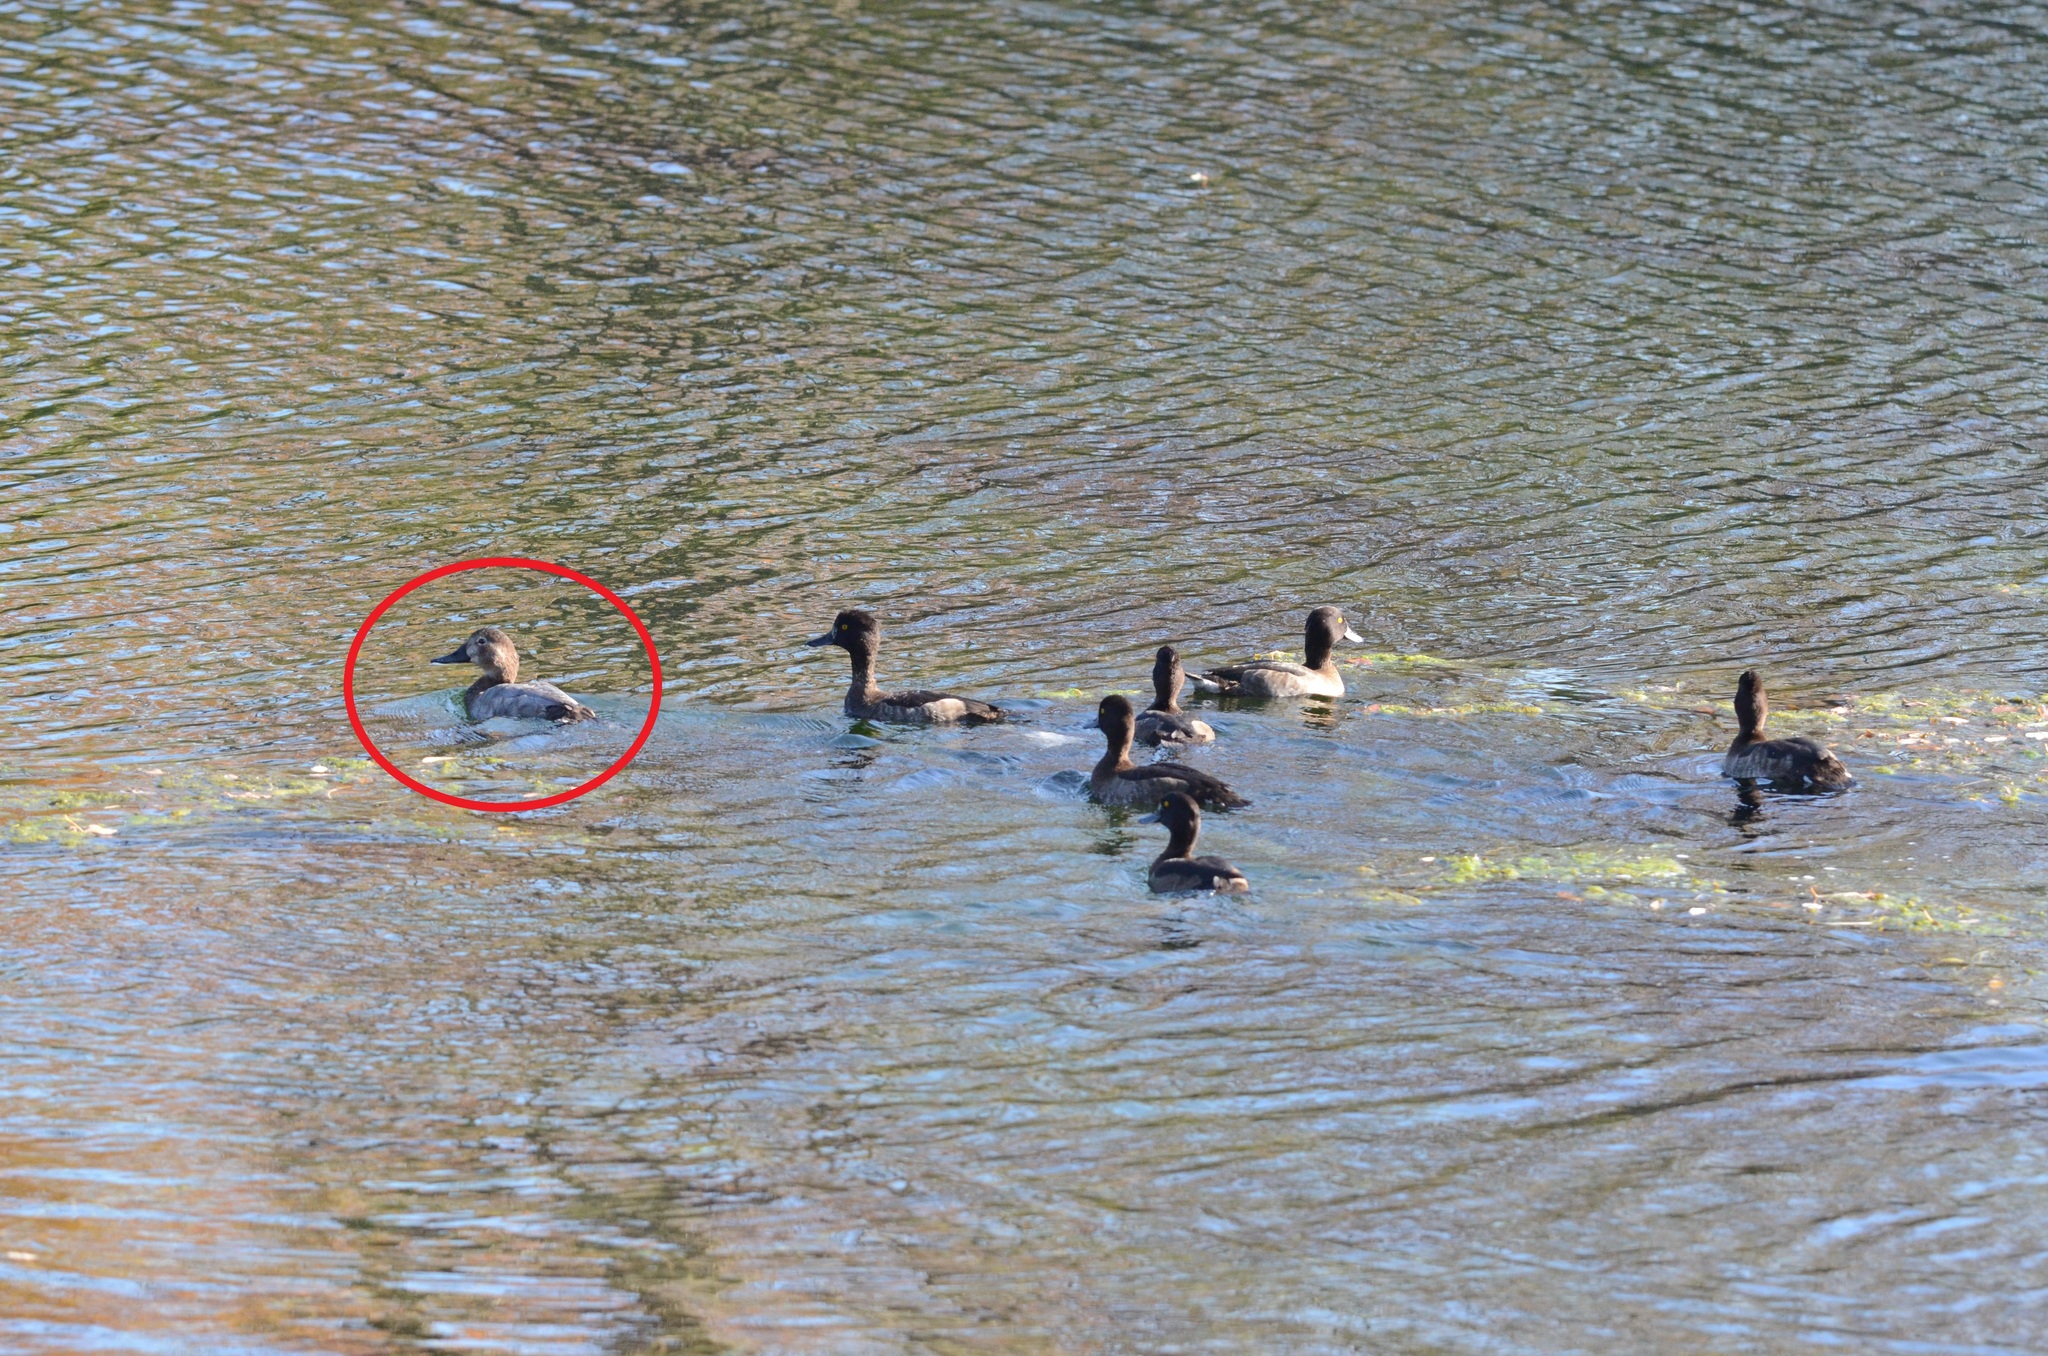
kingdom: Animalia
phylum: Chordata
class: Aves
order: Anseriformes
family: Anatidae
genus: Aythya
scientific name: Aythya ferina
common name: Common pochard
